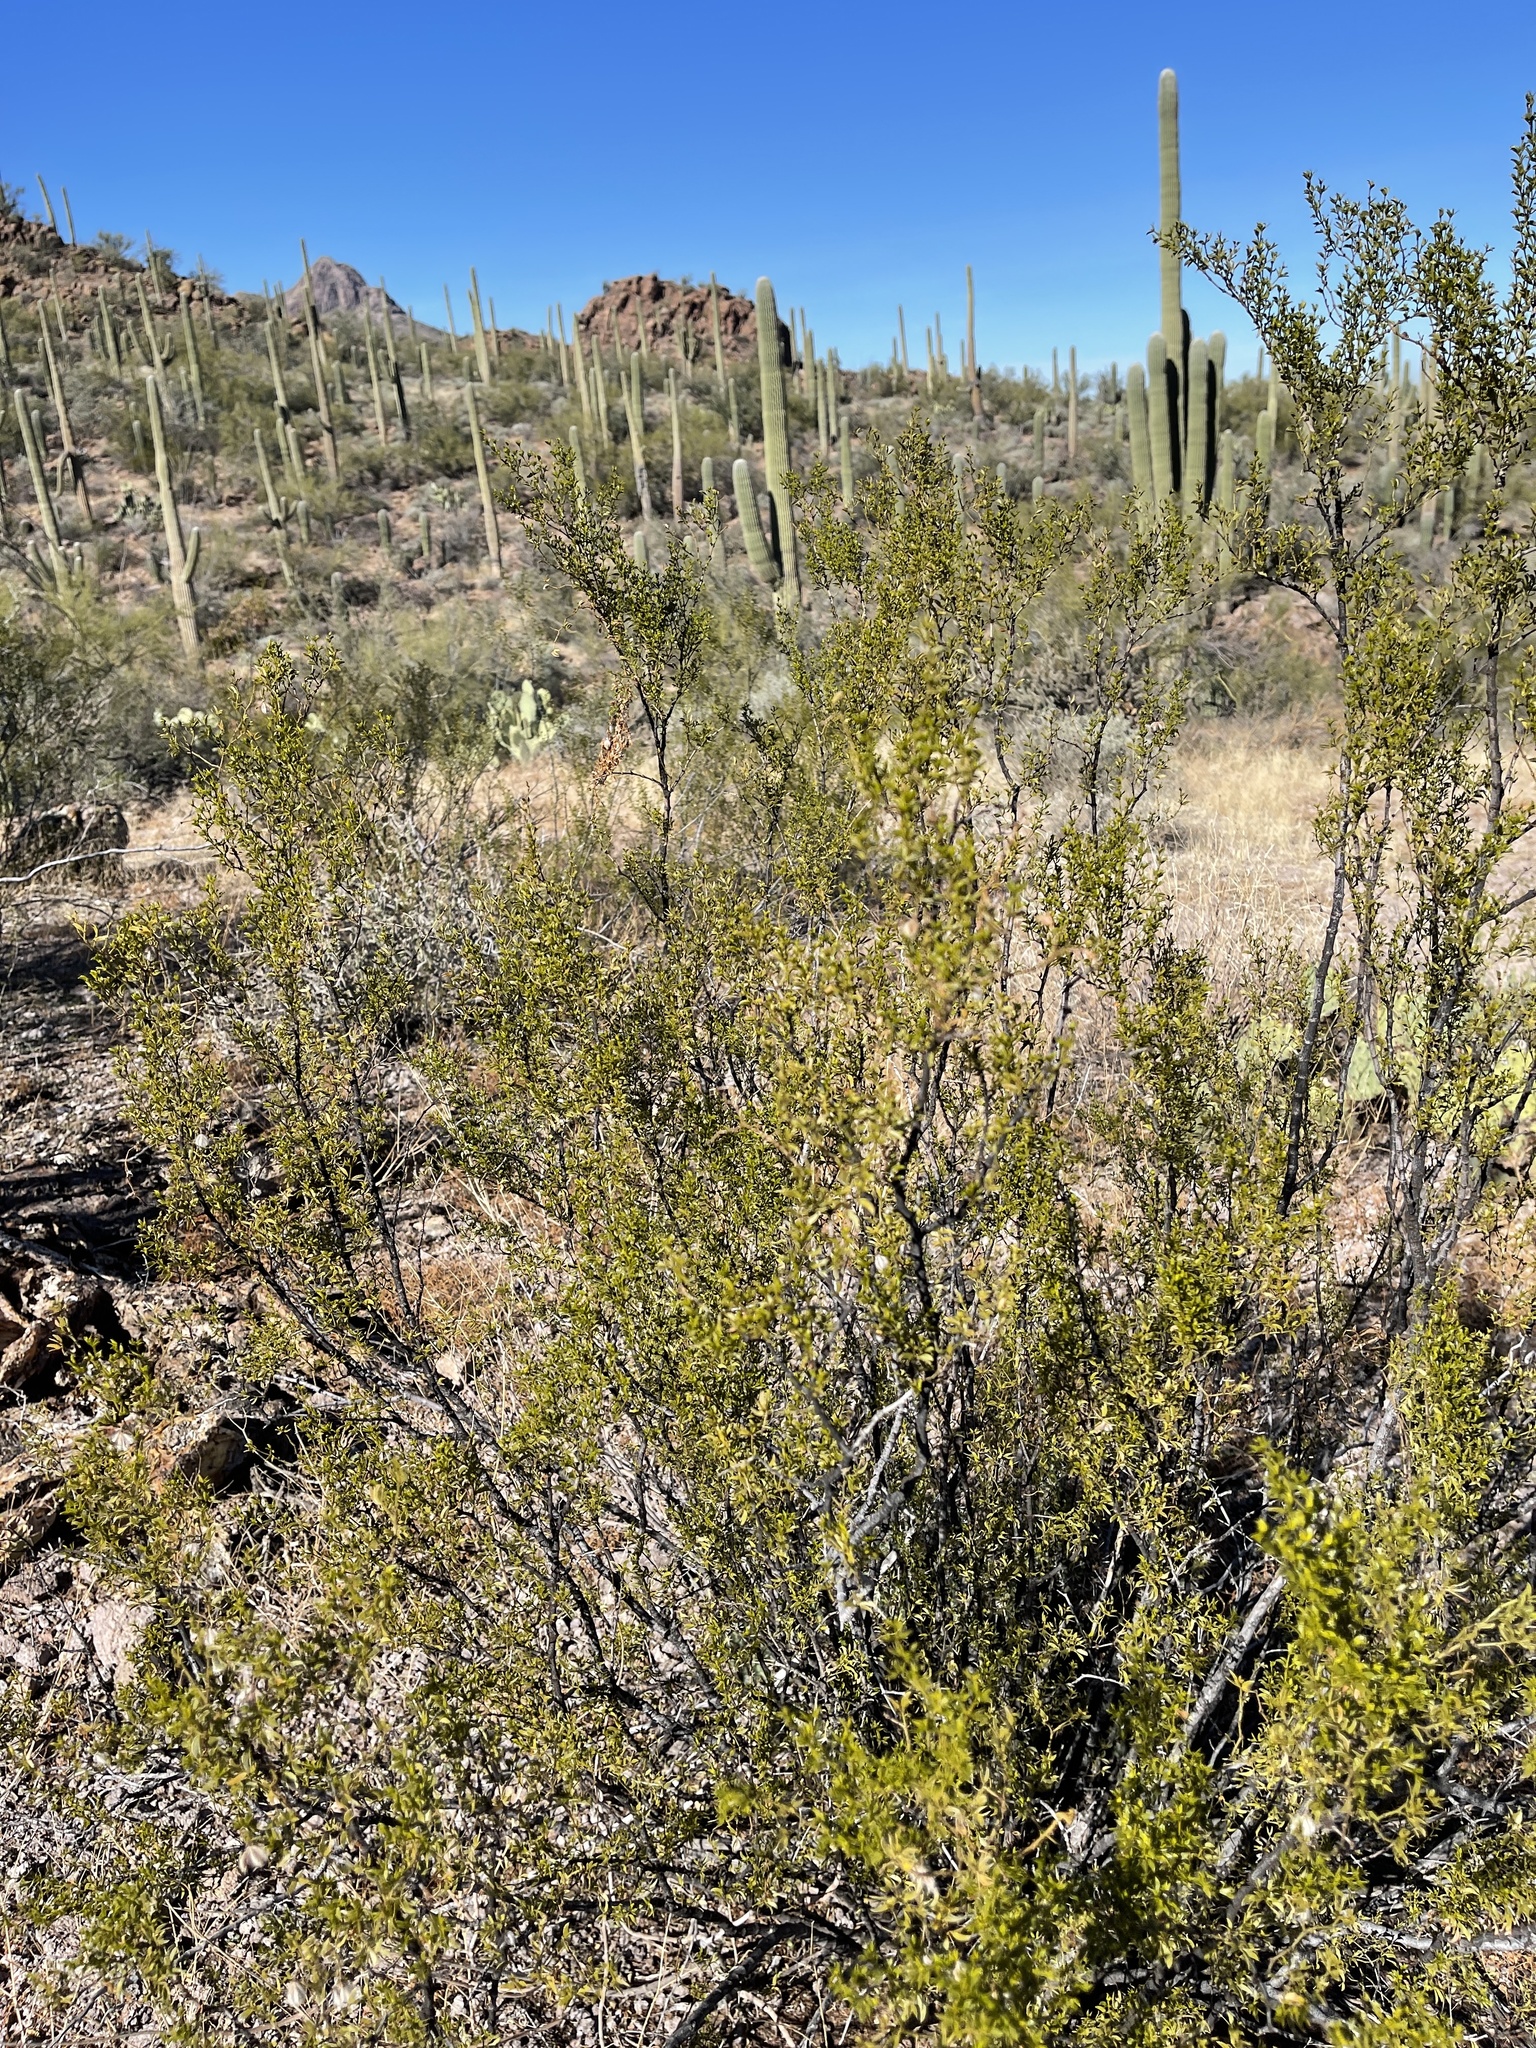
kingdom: Plantae
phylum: Tracheophyta
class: Magnoliopsida
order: Zygophyllales
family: Zygophyllaceae
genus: Larrea
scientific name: Larrea tridentata
